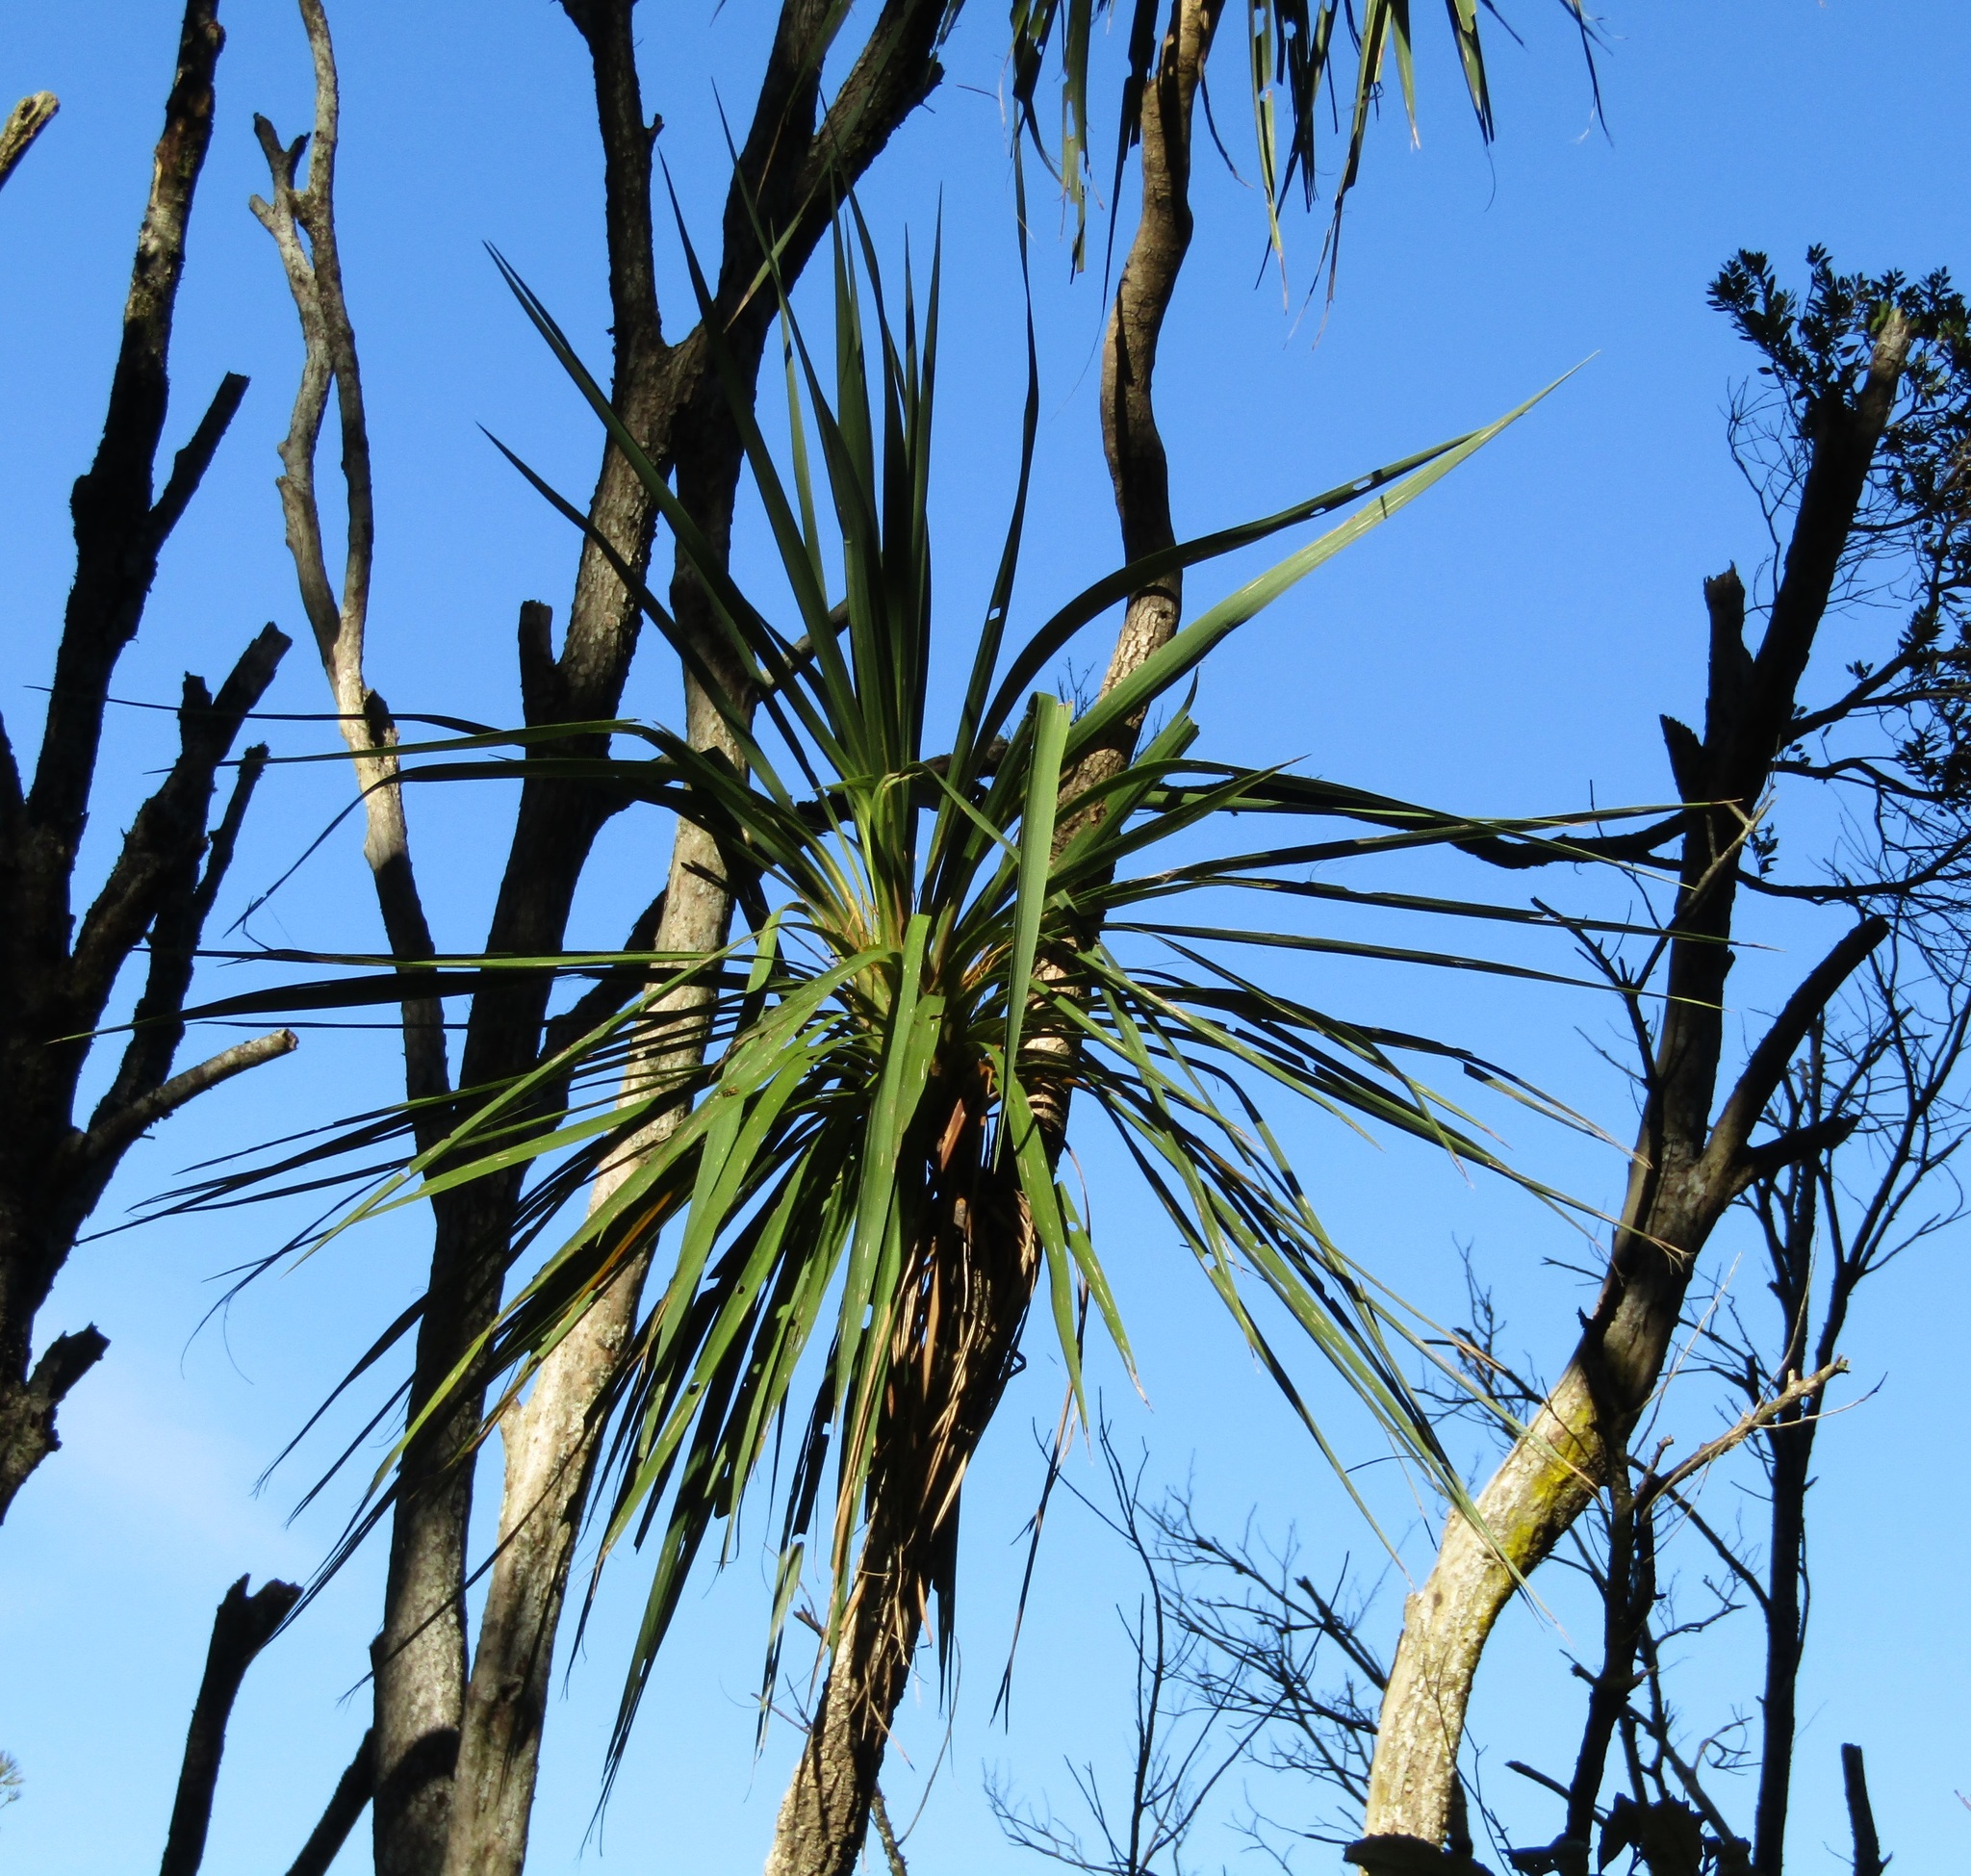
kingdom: Plantae
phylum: Tracheophyta
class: Liliopsida
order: Asparagales
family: Asparagaceae
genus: Cordyline
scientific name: Cordyline australis
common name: Cabbage-palm
